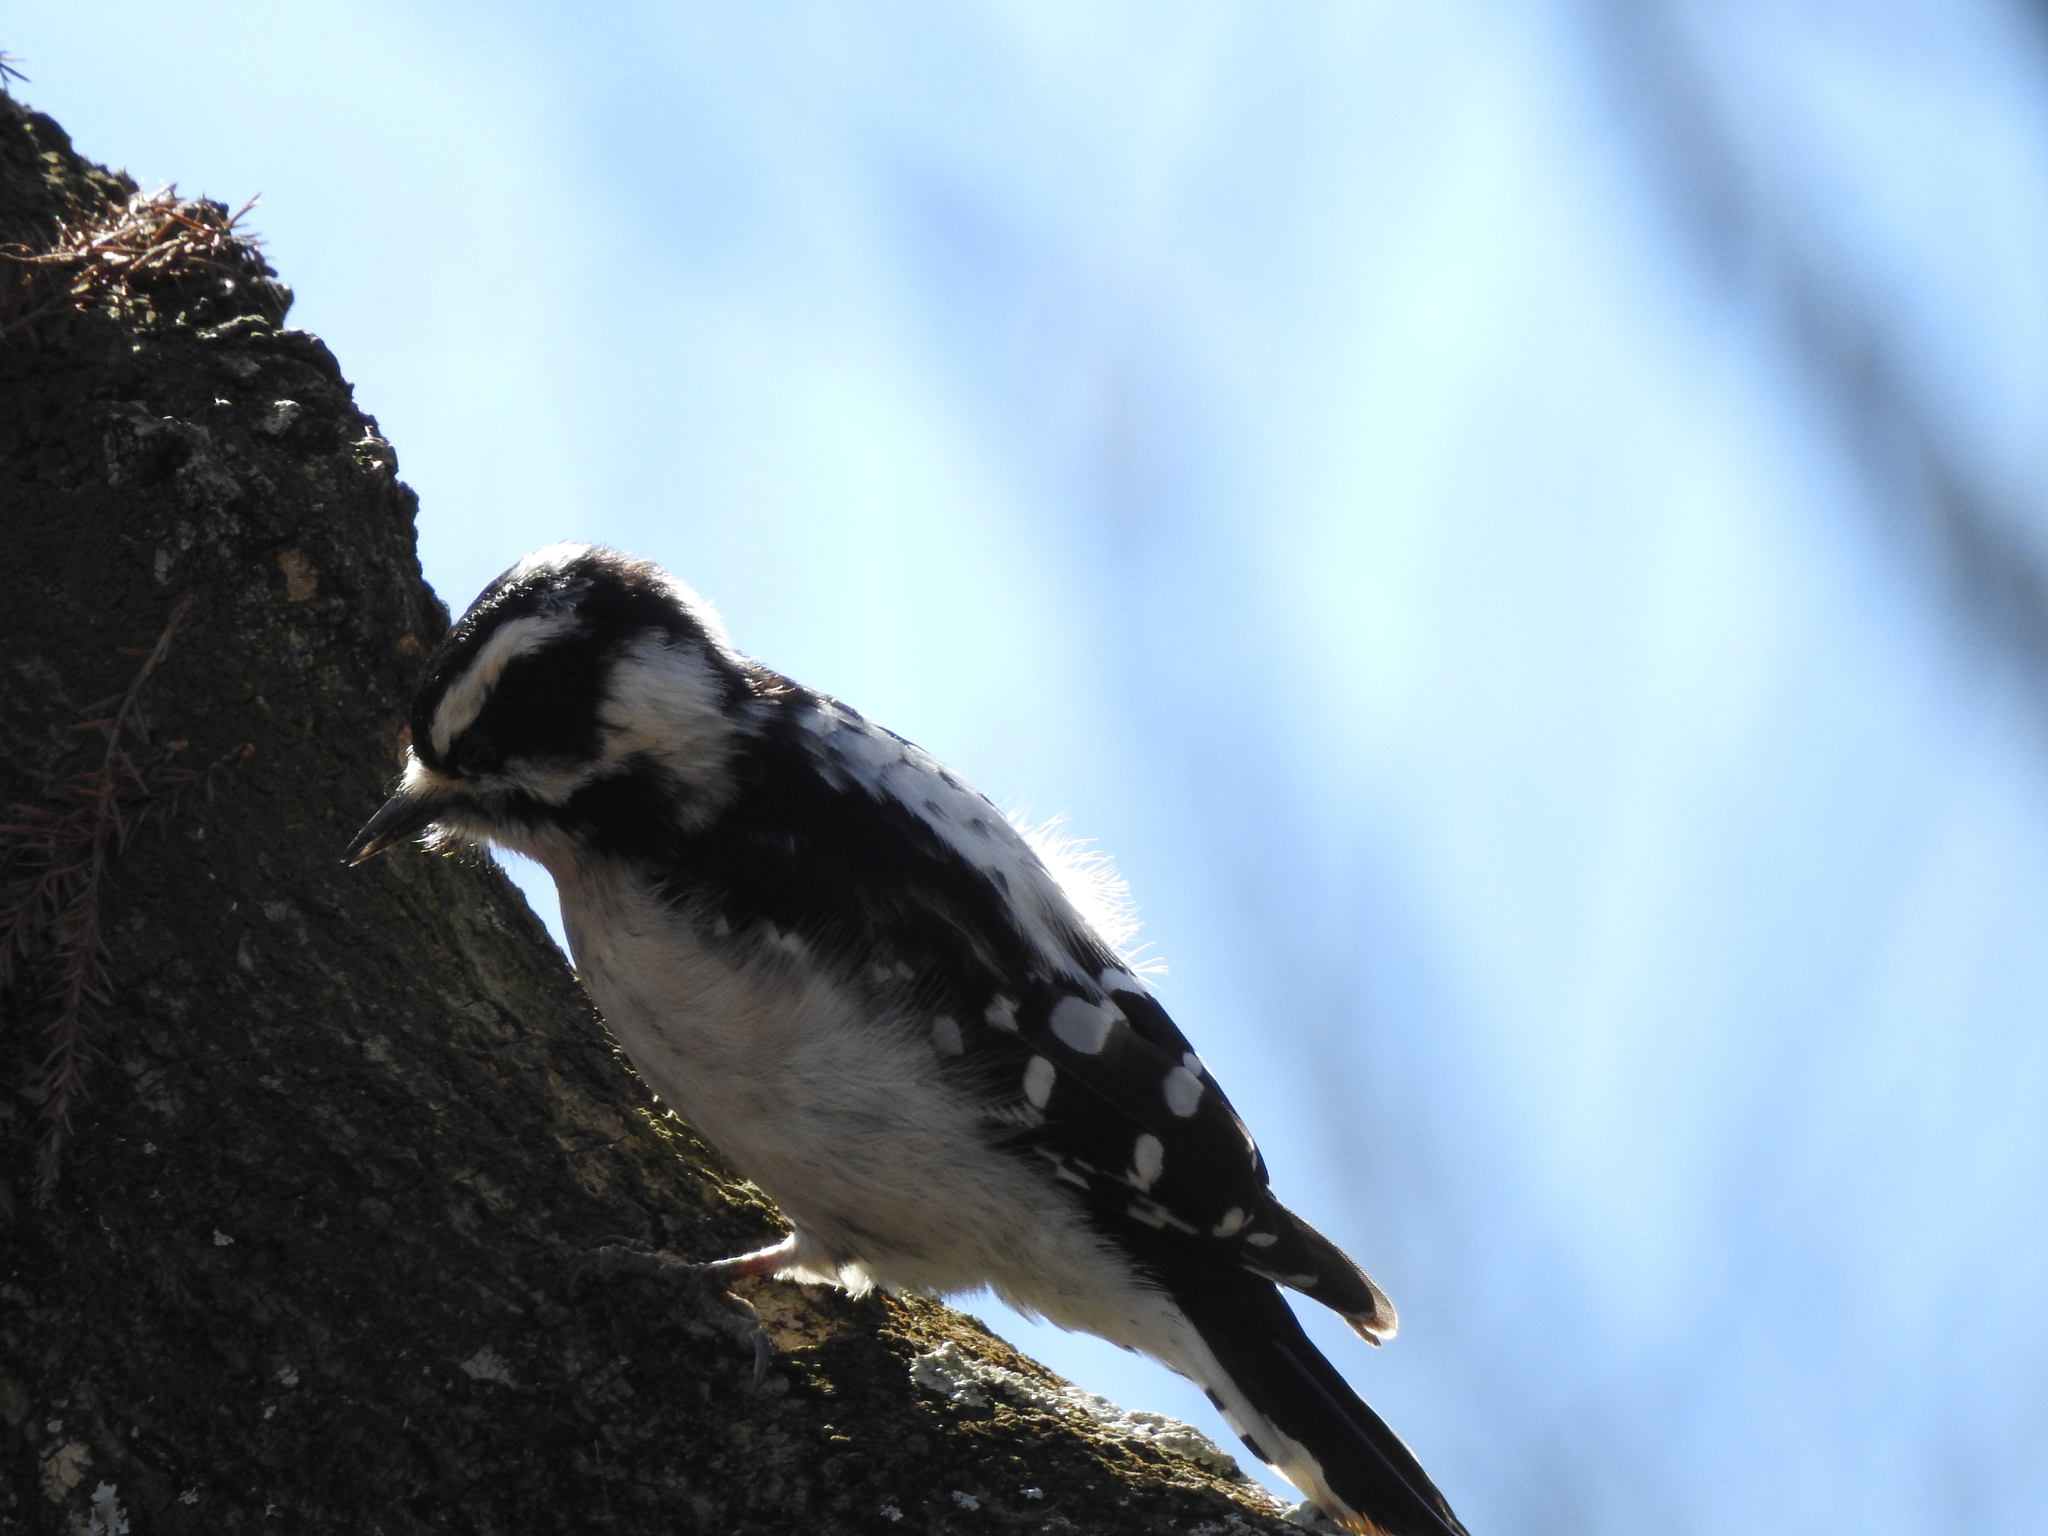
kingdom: Animalia
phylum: Chordata
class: Aves
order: Piciformes
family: Picidae
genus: Dryobates
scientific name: Dryobates pubescens
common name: Downy woodpecker
